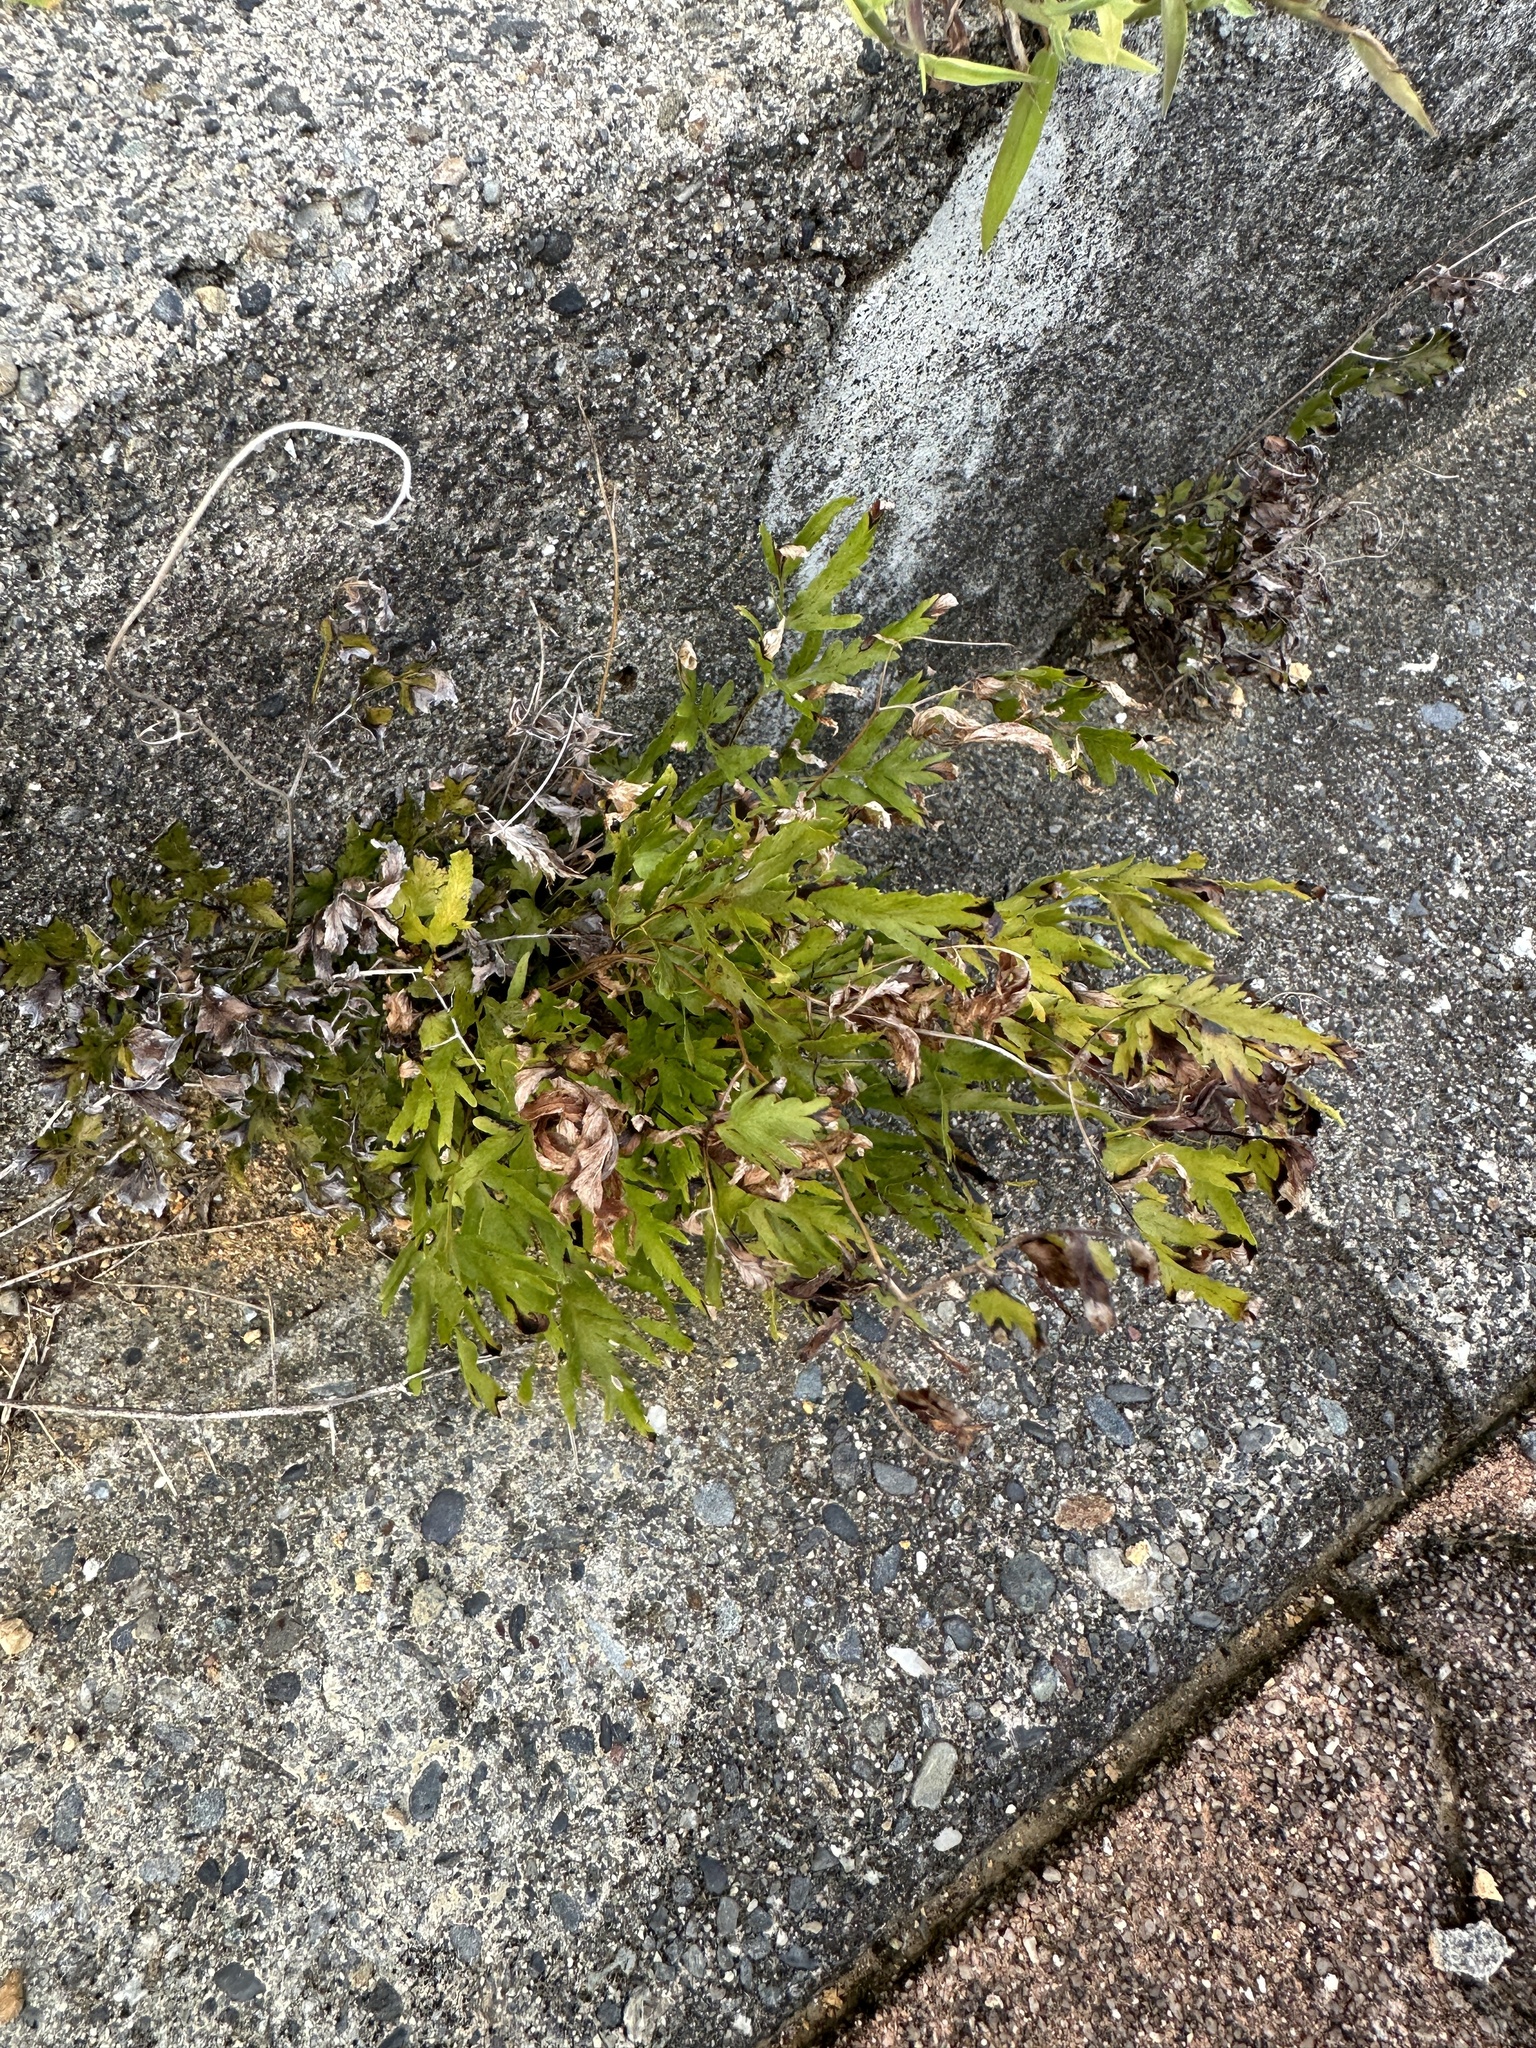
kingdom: Plantae
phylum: Tracheophyta
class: Polypodiopsida
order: Schizaeales
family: Lygodiaceae
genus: Lygodium
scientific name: Lygodium japonicum
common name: Japanese climbing fern
